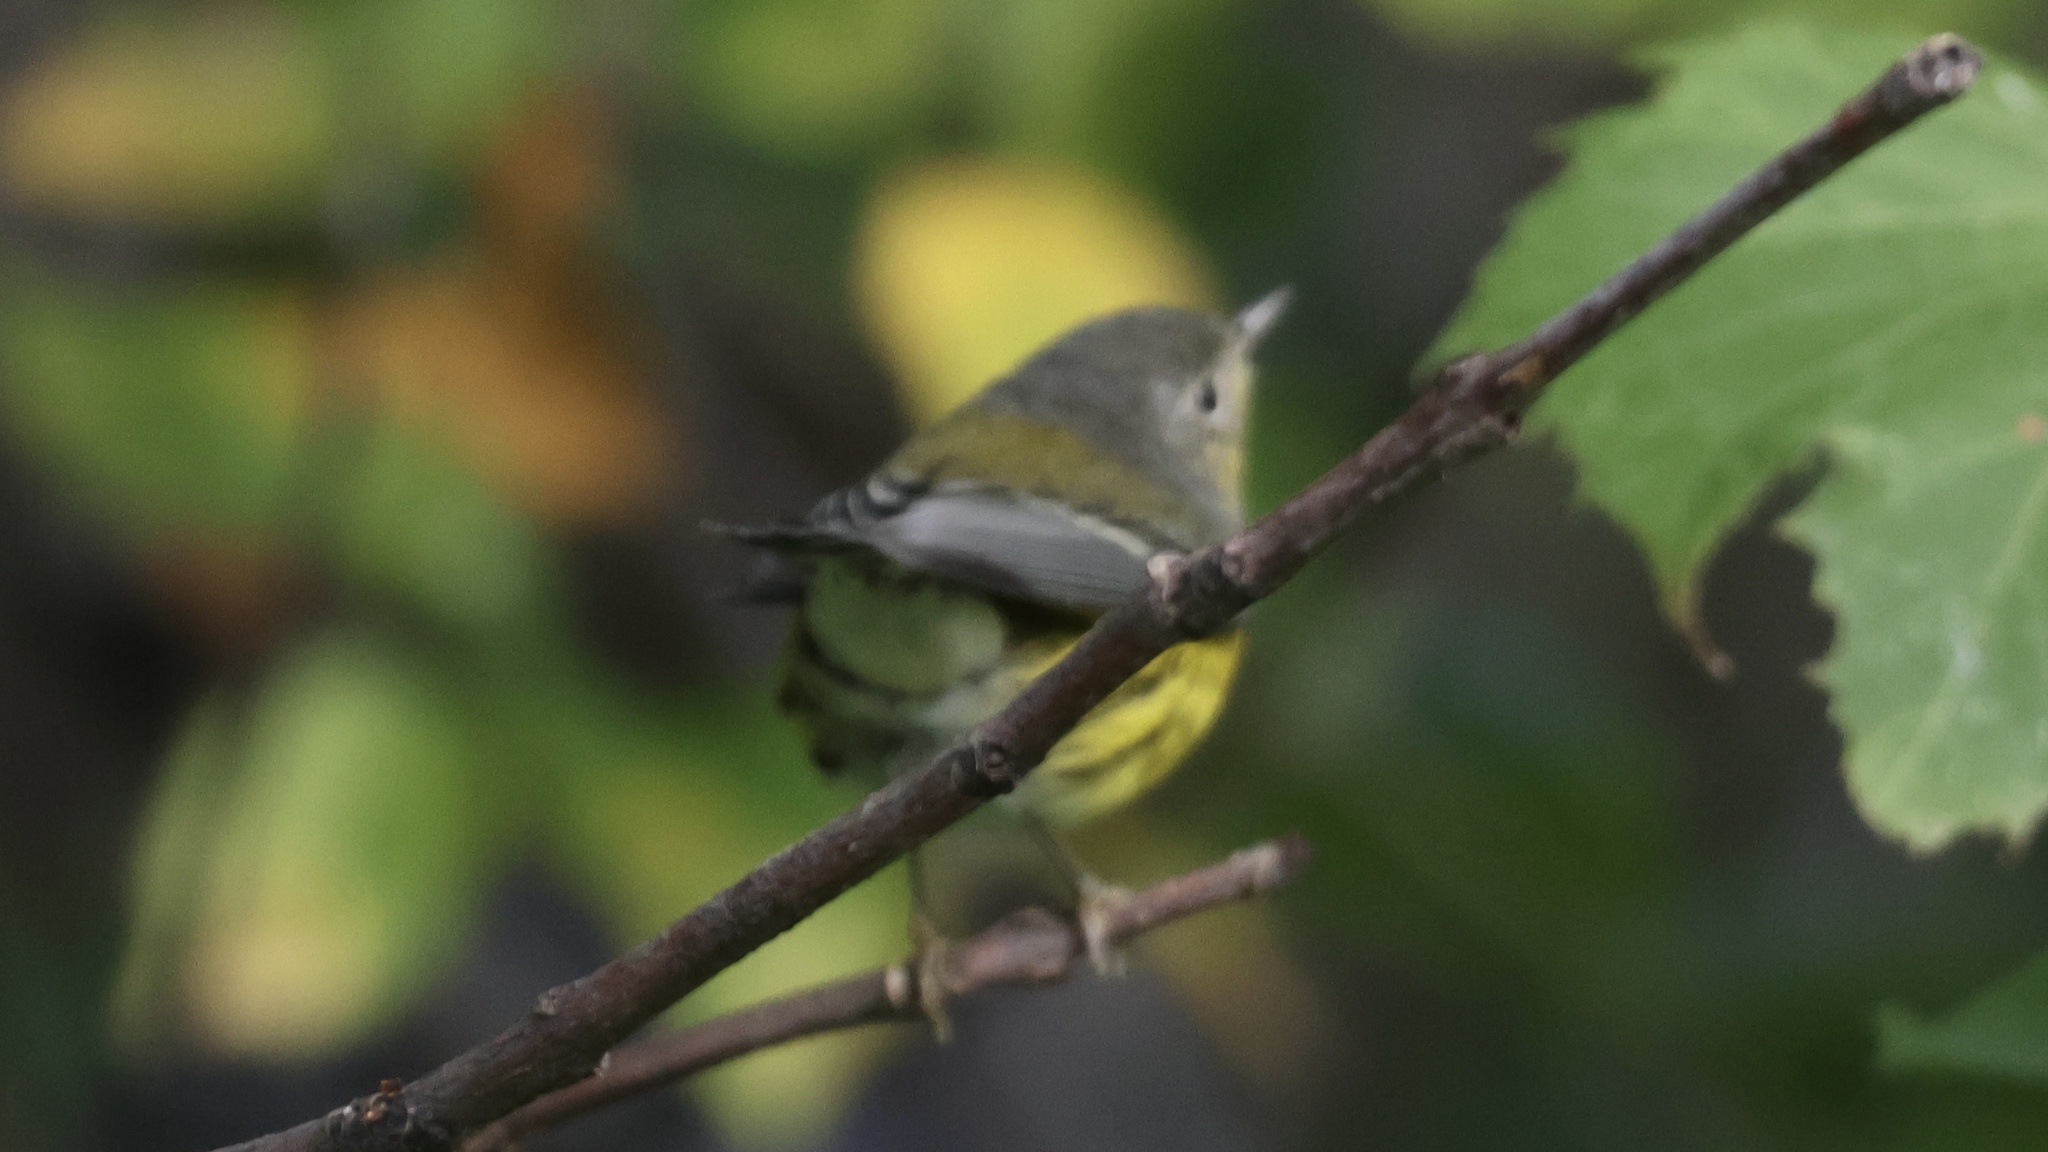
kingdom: Animalia
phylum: Chordata
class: Aves
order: Passeriformes
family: Parulidae
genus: Setophaga
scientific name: Setophaga magnolia
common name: Magnolia warbler
